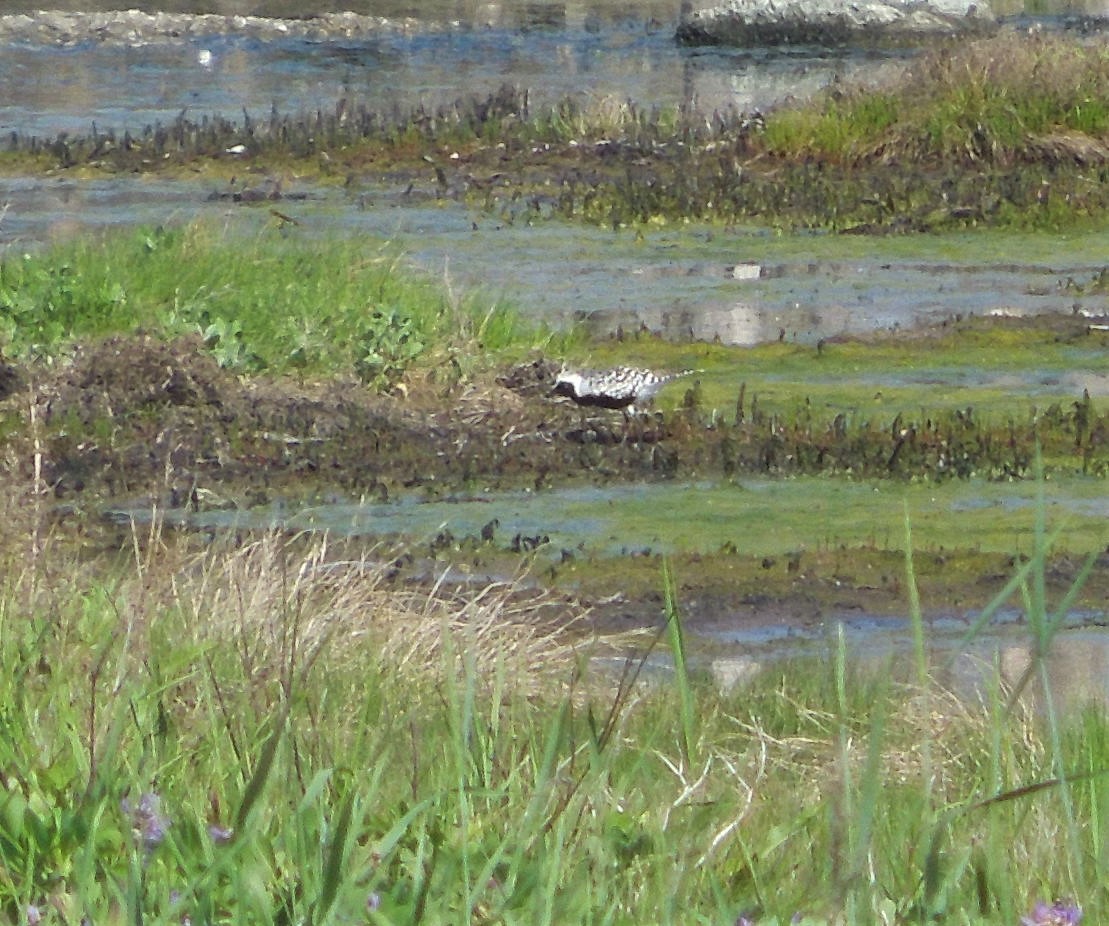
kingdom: Animalia
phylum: Chordata
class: Aves
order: Charadriiformes
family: Charadriidae
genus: Pluvialis
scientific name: Pluvialis squatarola
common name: Grey plover
